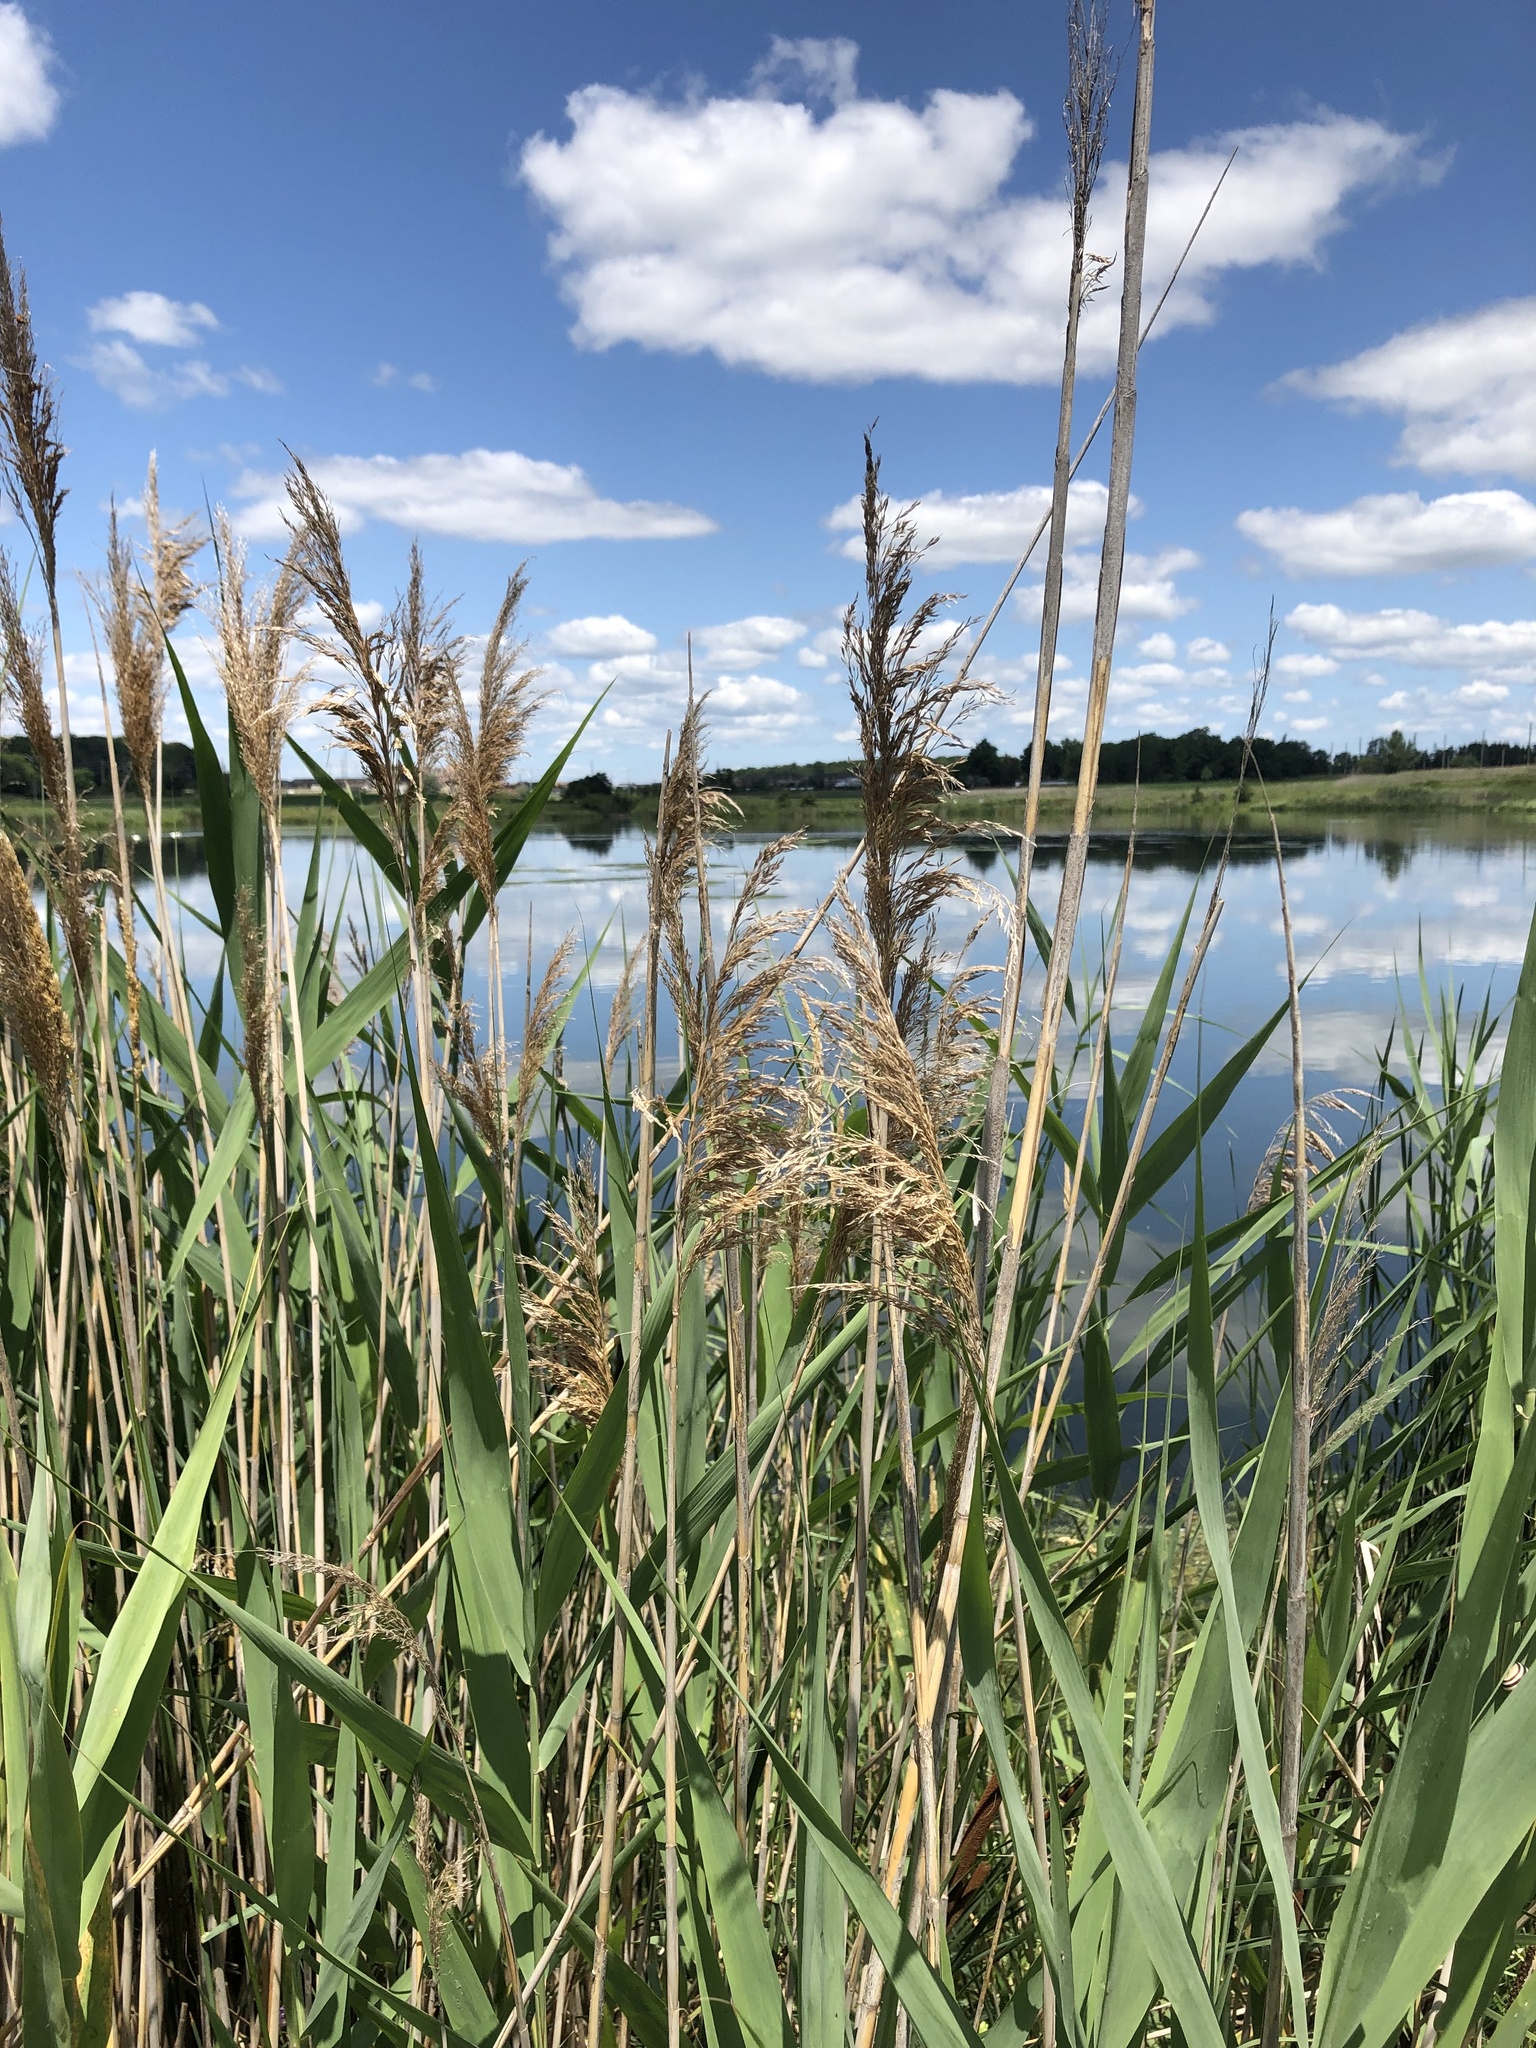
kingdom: Plantae
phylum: Tracheophyta
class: Liliopsida
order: Poales
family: Poaceae
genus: Phragmites
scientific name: Phragmites australis
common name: Common reed
